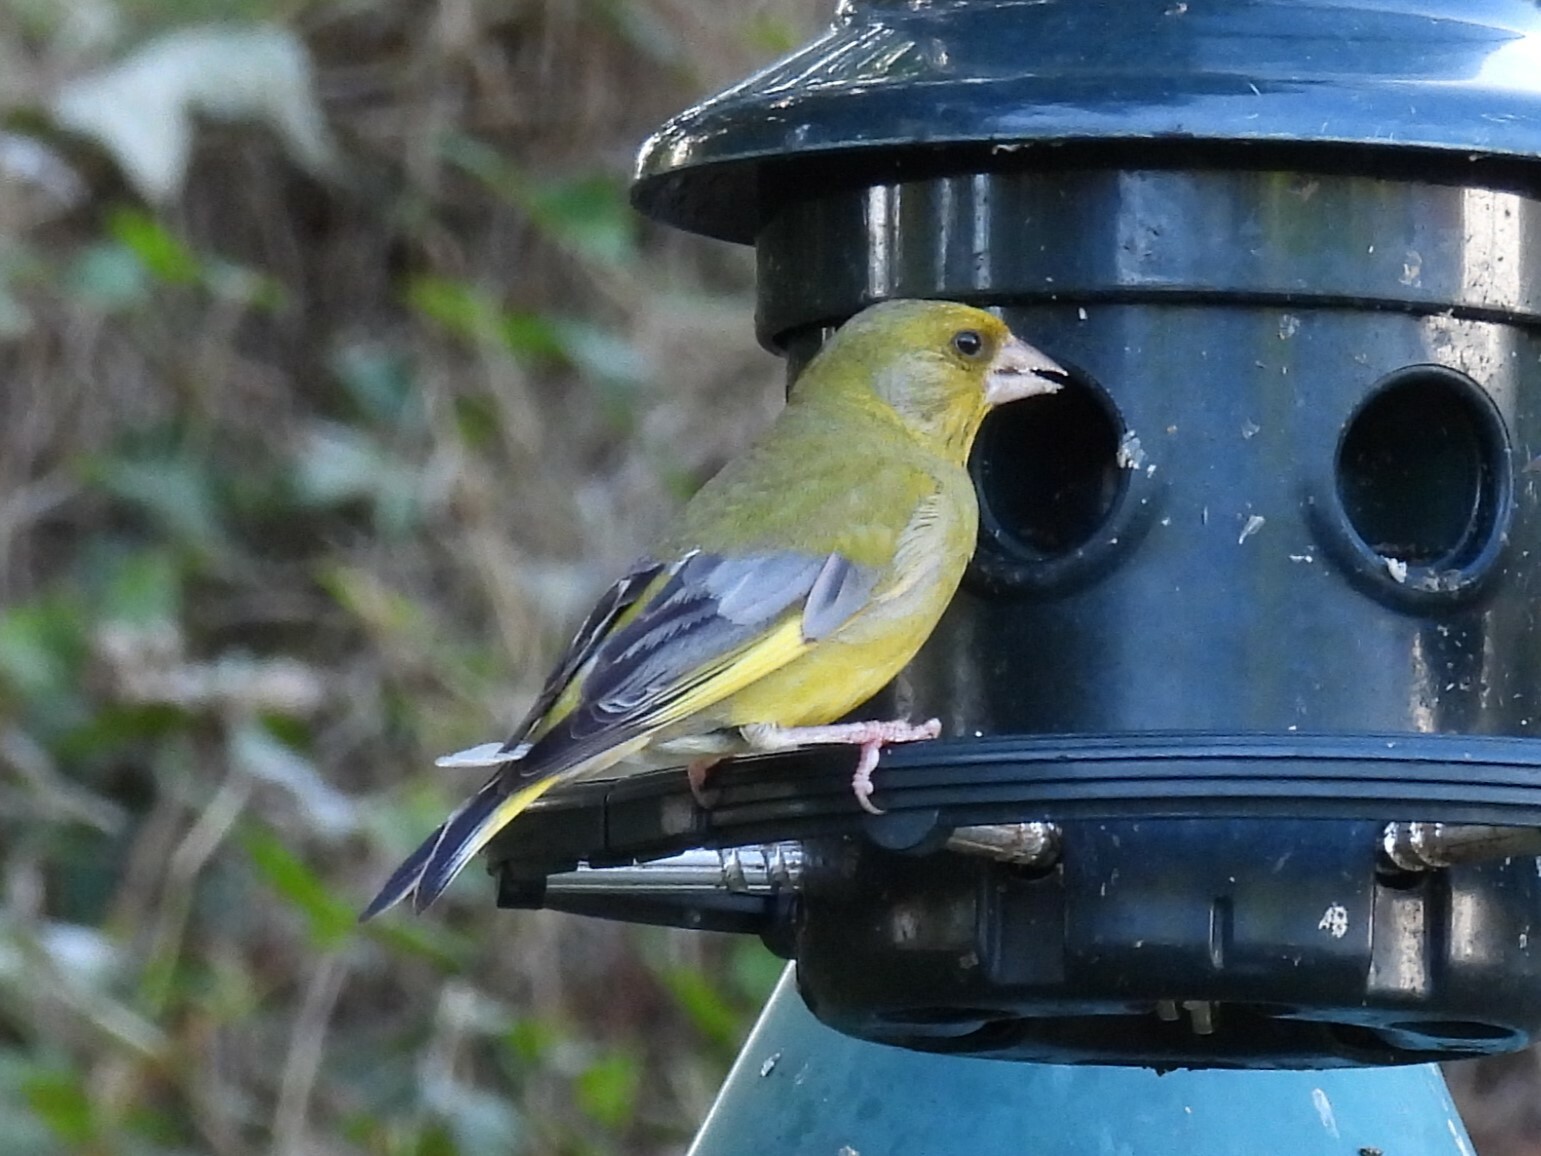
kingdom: Plantae
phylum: Tracheophyta
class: Liliopsida
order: Poales
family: Poaceae
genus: Chloris
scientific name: Chloris chloris
